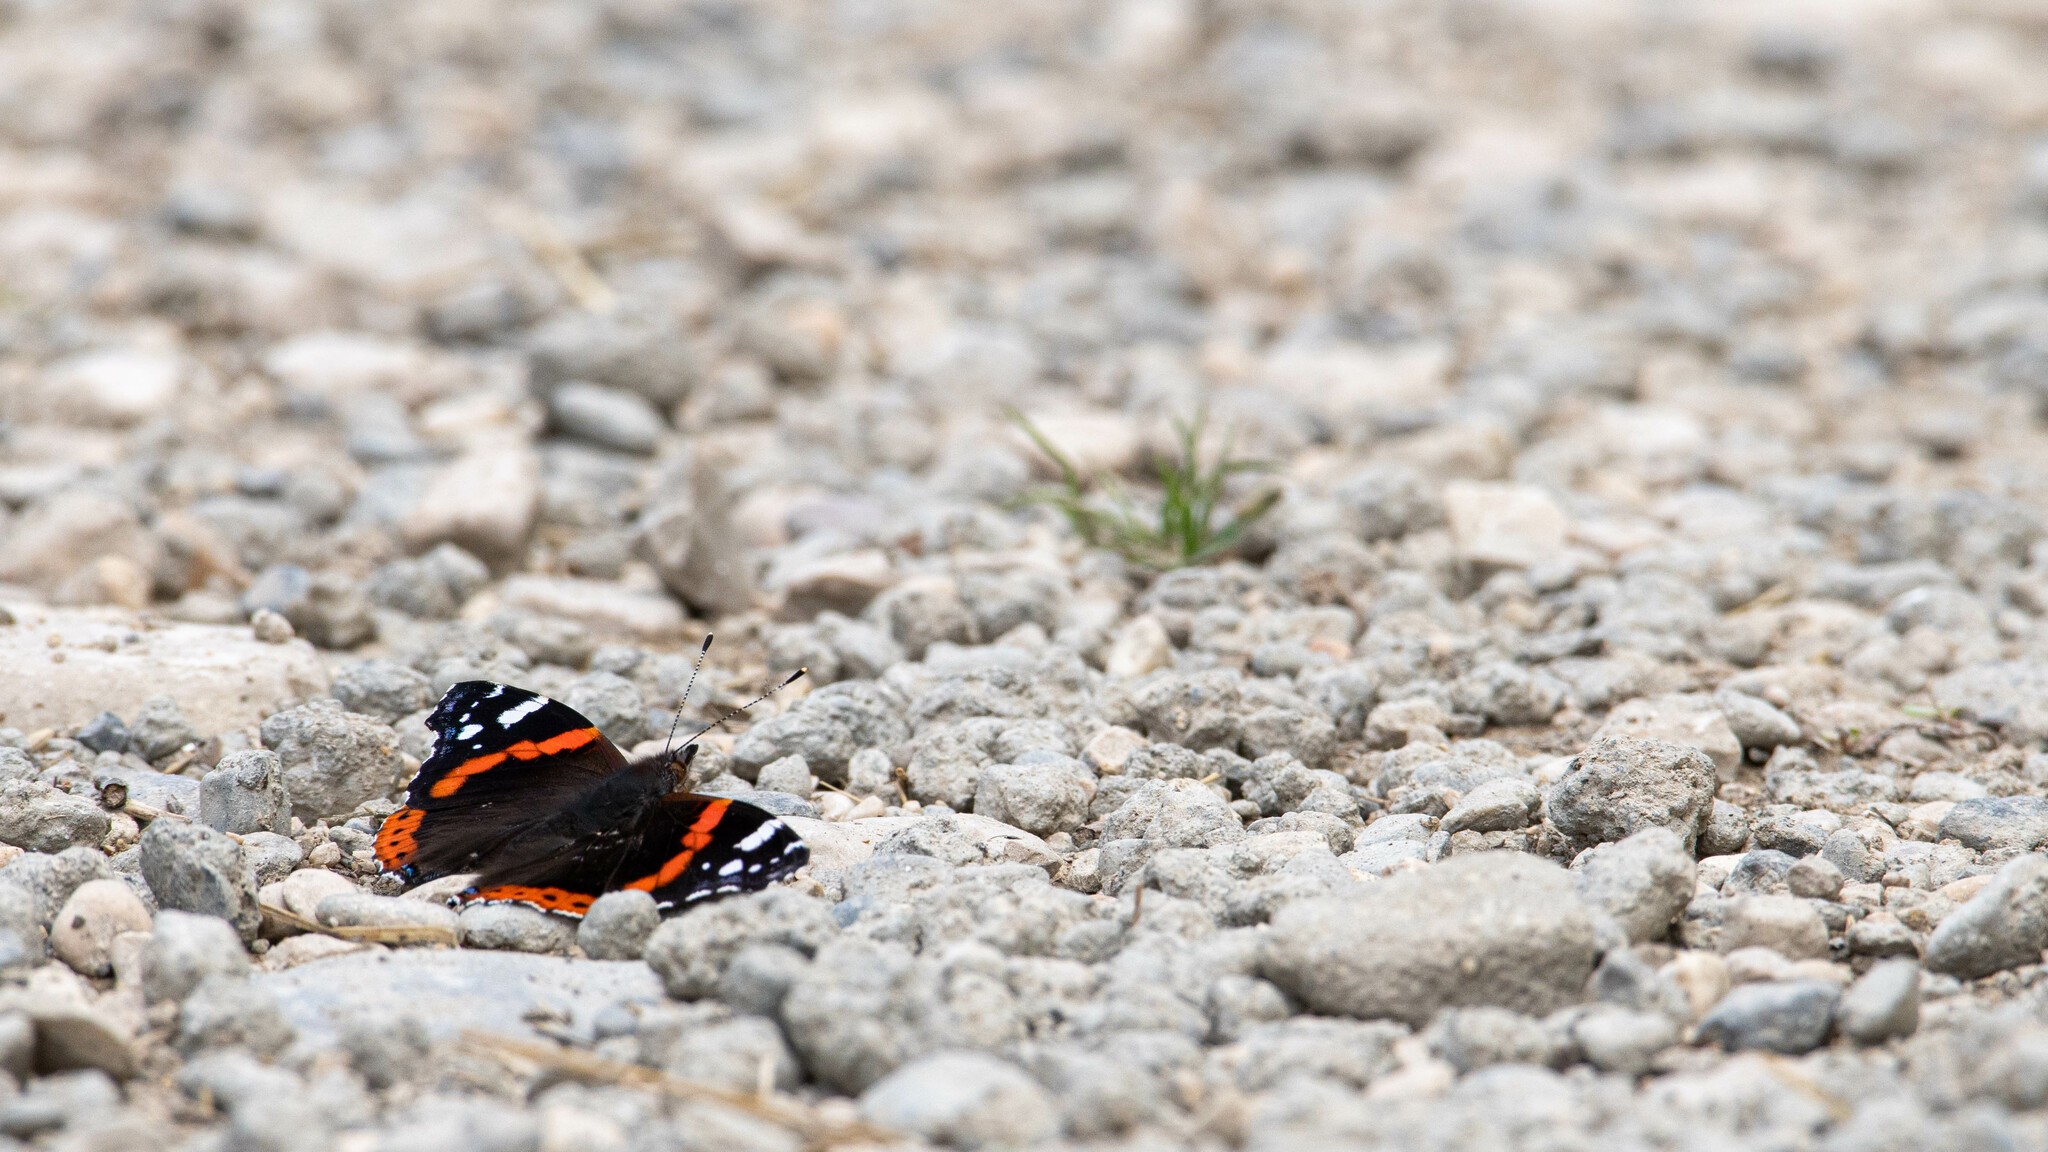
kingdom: Animalia
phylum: Arthropoda
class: Insecta
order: Lepidoptera
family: Nymphalidae
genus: Vanessa
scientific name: Vanessa atalanta
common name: Red admiral
